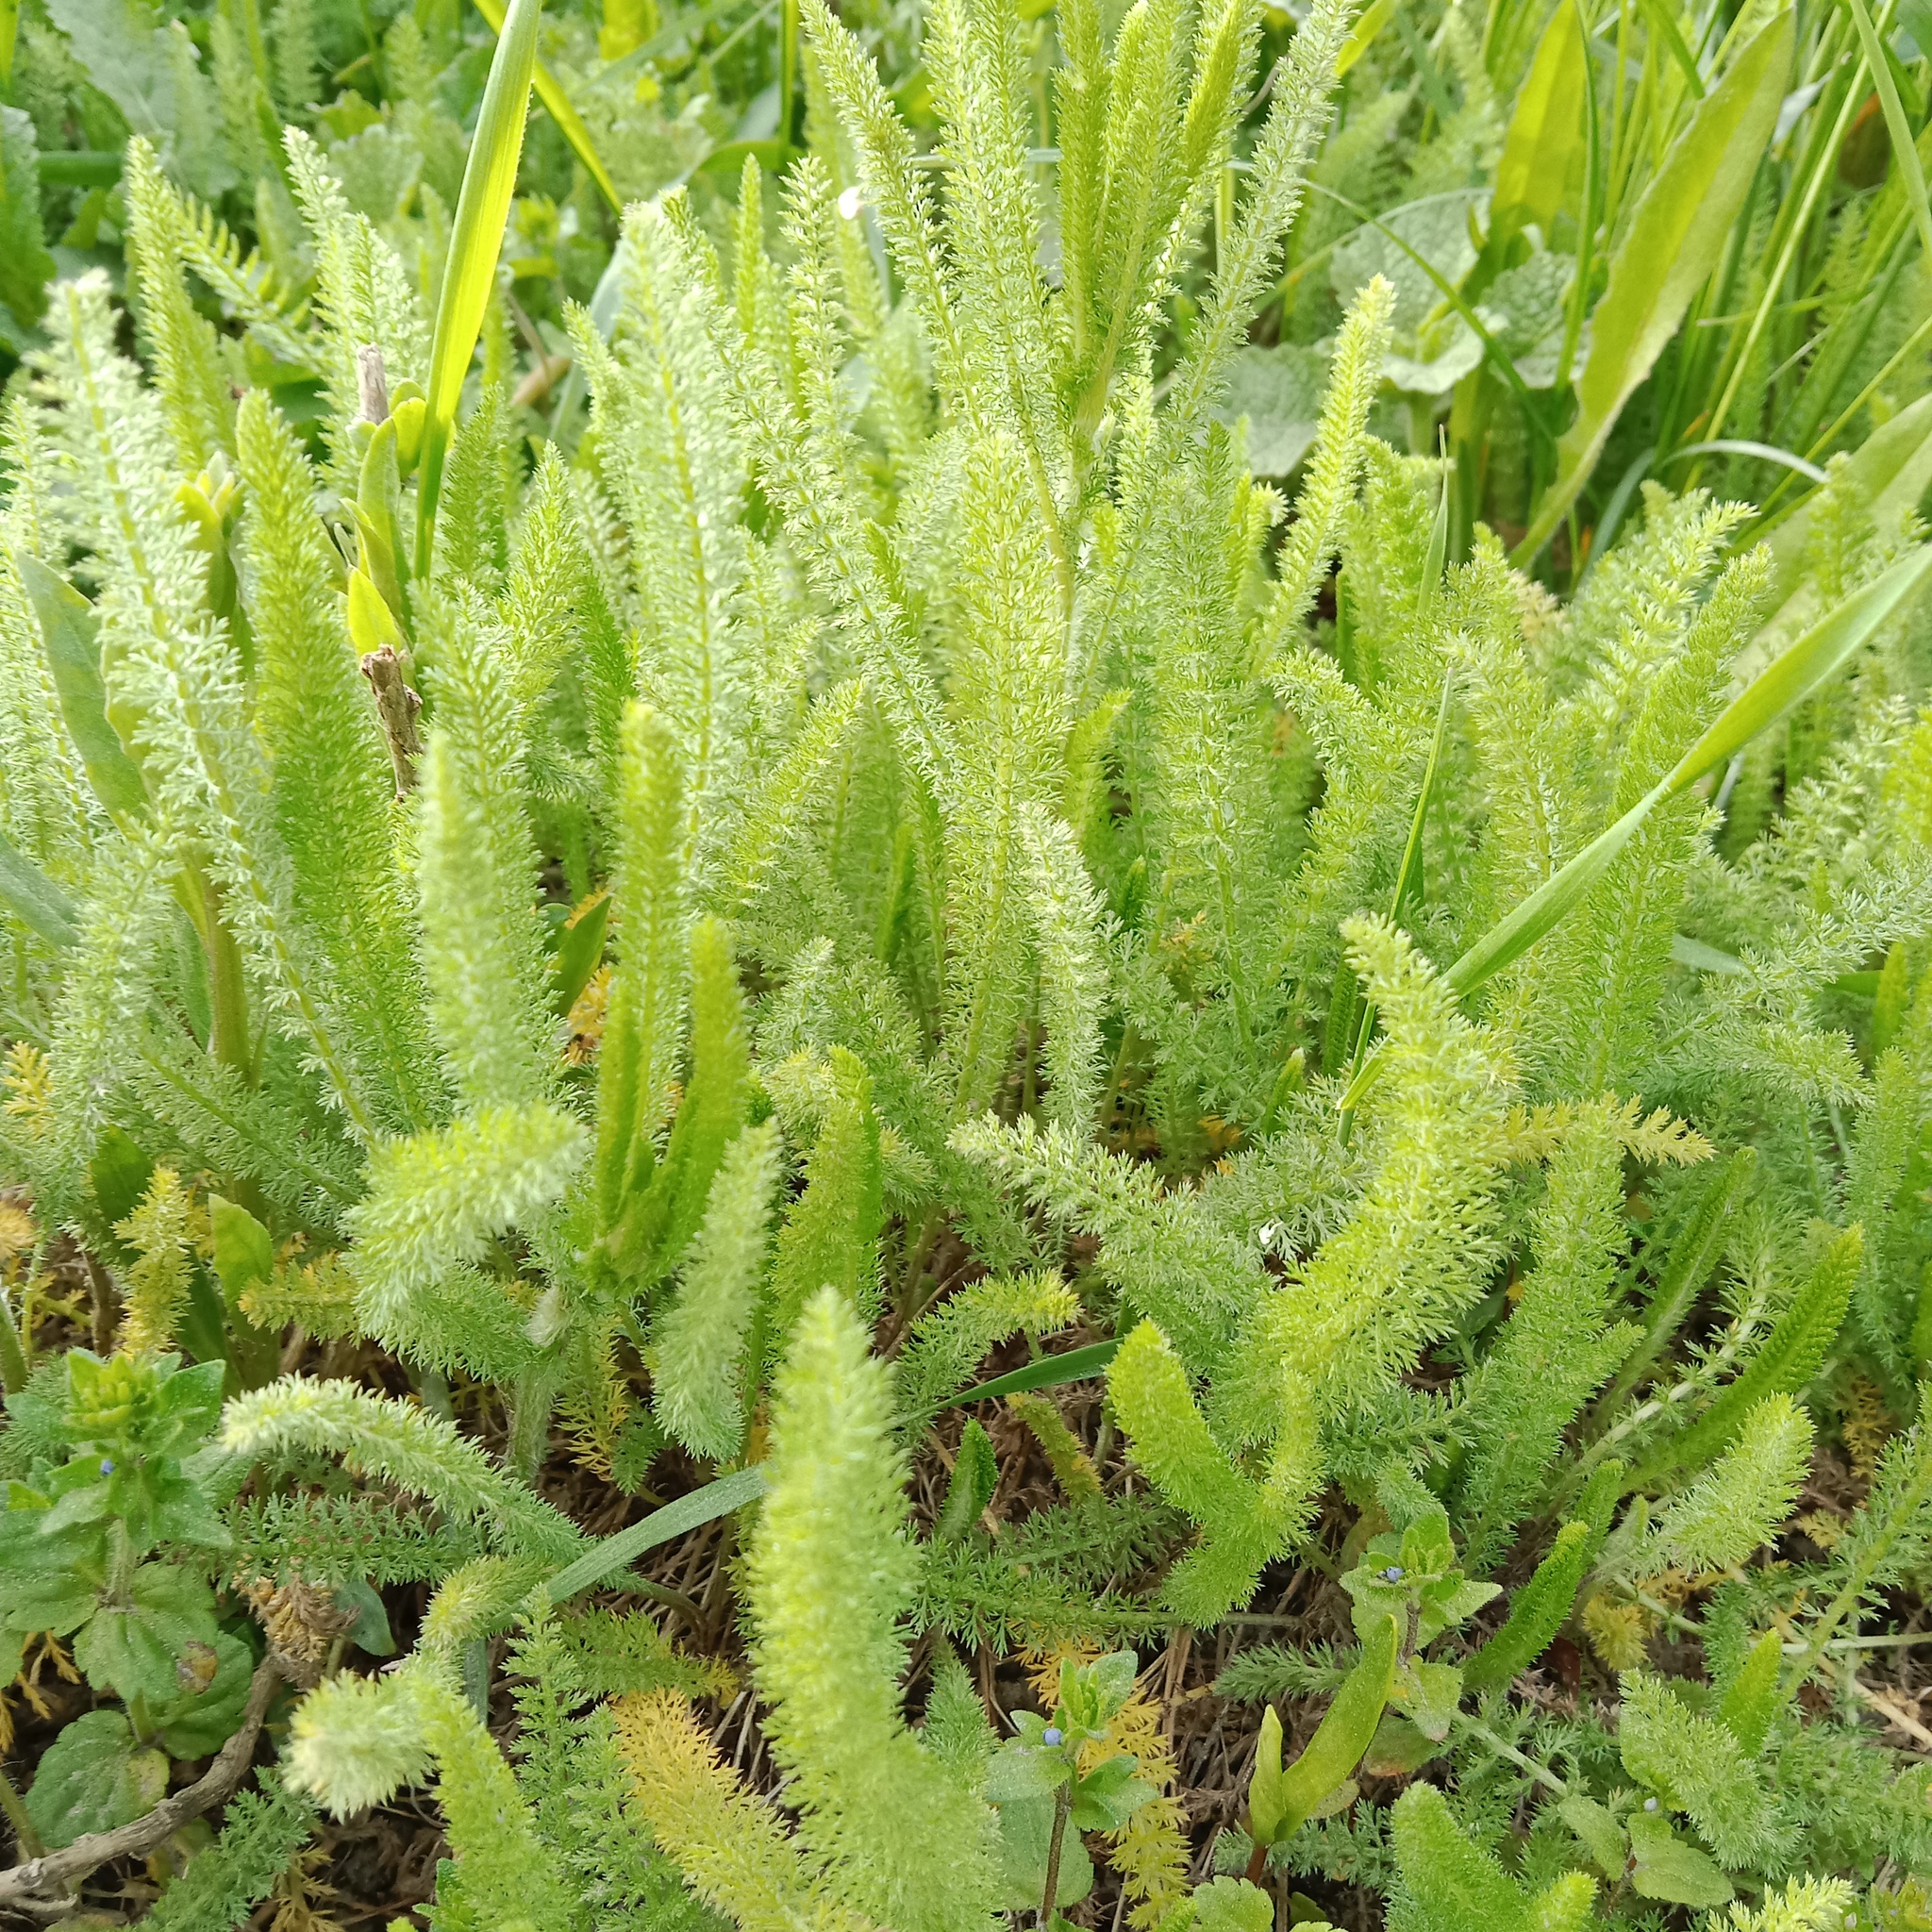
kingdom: Plantae
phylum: Tracheophyta
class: Magnoliopsida
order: Asterales
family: Asteraceae
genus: Achillea
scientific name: Achillea setacea
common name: Bristly yarrow
